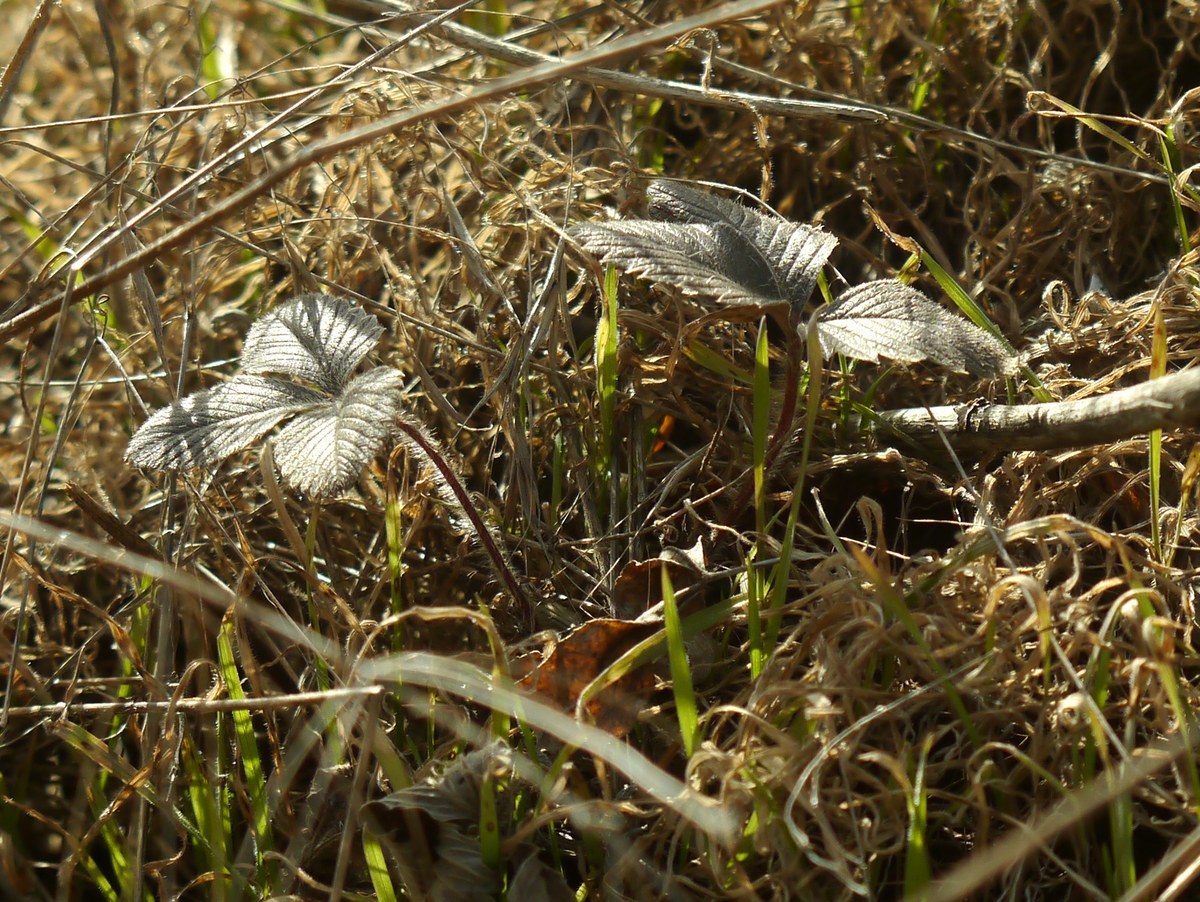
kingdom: Plantae
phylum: Tracheophyta
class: Magnoliopsida
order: Rosales
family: Rosaceae
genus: Fragaria
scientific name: Fragaria viridis
